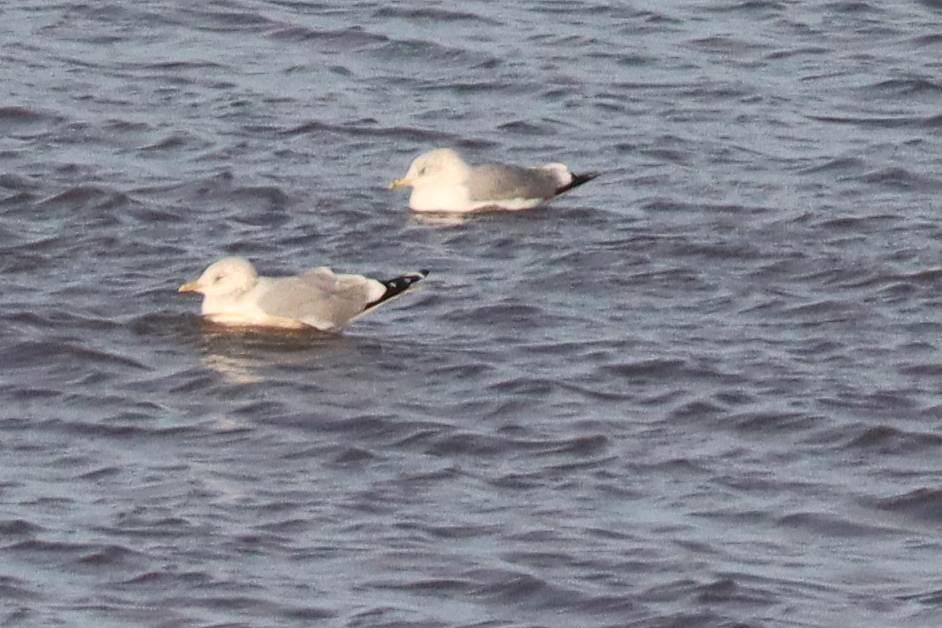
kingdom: Animalia
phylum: Chordata
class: Aves
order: Charadriiformes
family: Laridae
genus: Larus
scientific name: Larus canus
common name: Mew gull
